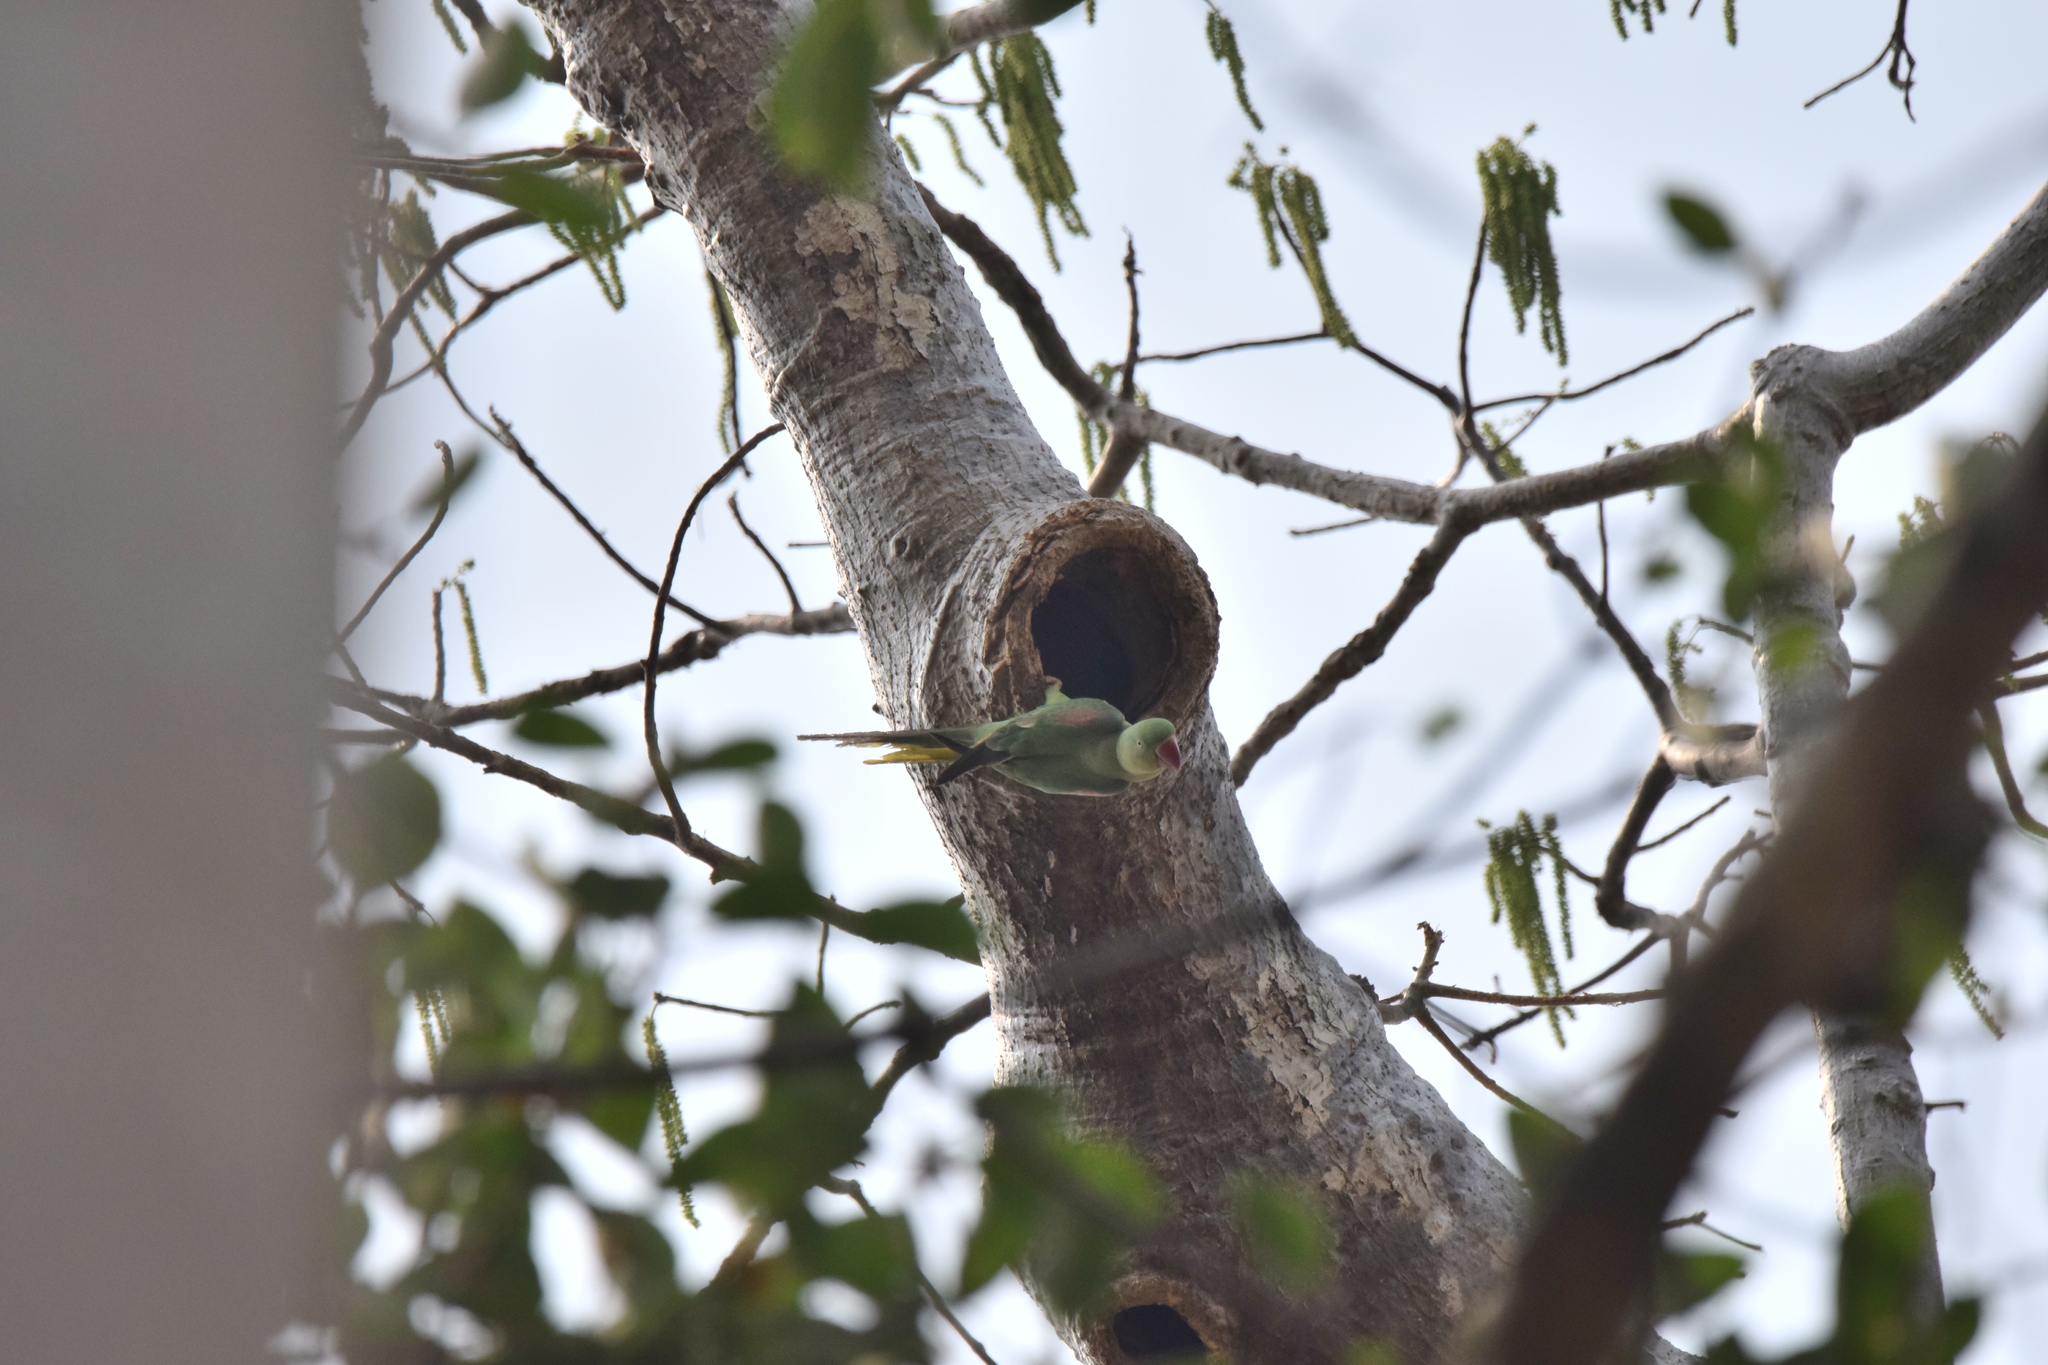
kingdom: Animalia
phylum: Chordata
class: Aves
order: Psittaciformes
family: Psittacidae
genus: Psittacula
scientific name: Psittacula eupatria
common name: Alexandrine parakeet
